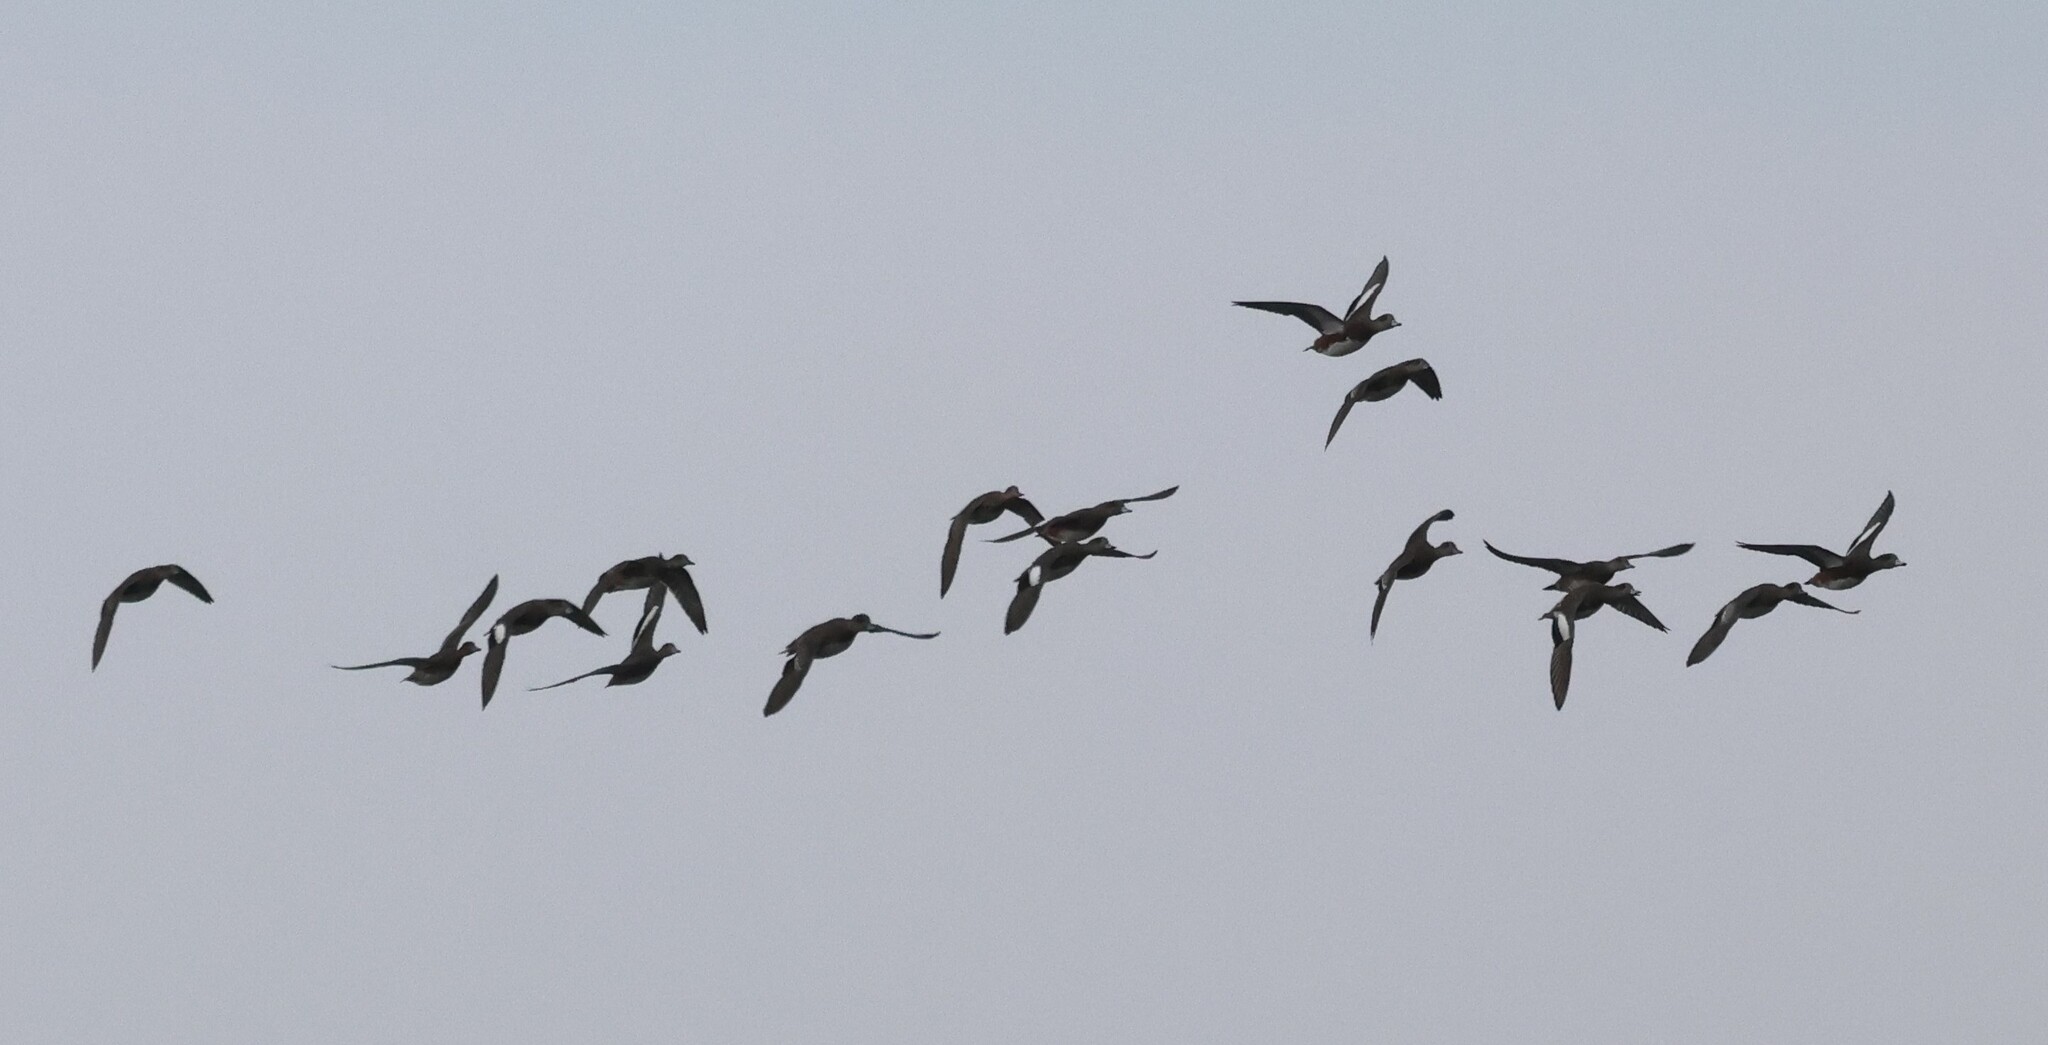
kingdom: Animalia
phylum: Chordata
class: Aves
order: Anseriformes
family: Anatidae
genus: Mareca
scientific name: Mareca americana
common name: American wigeon
